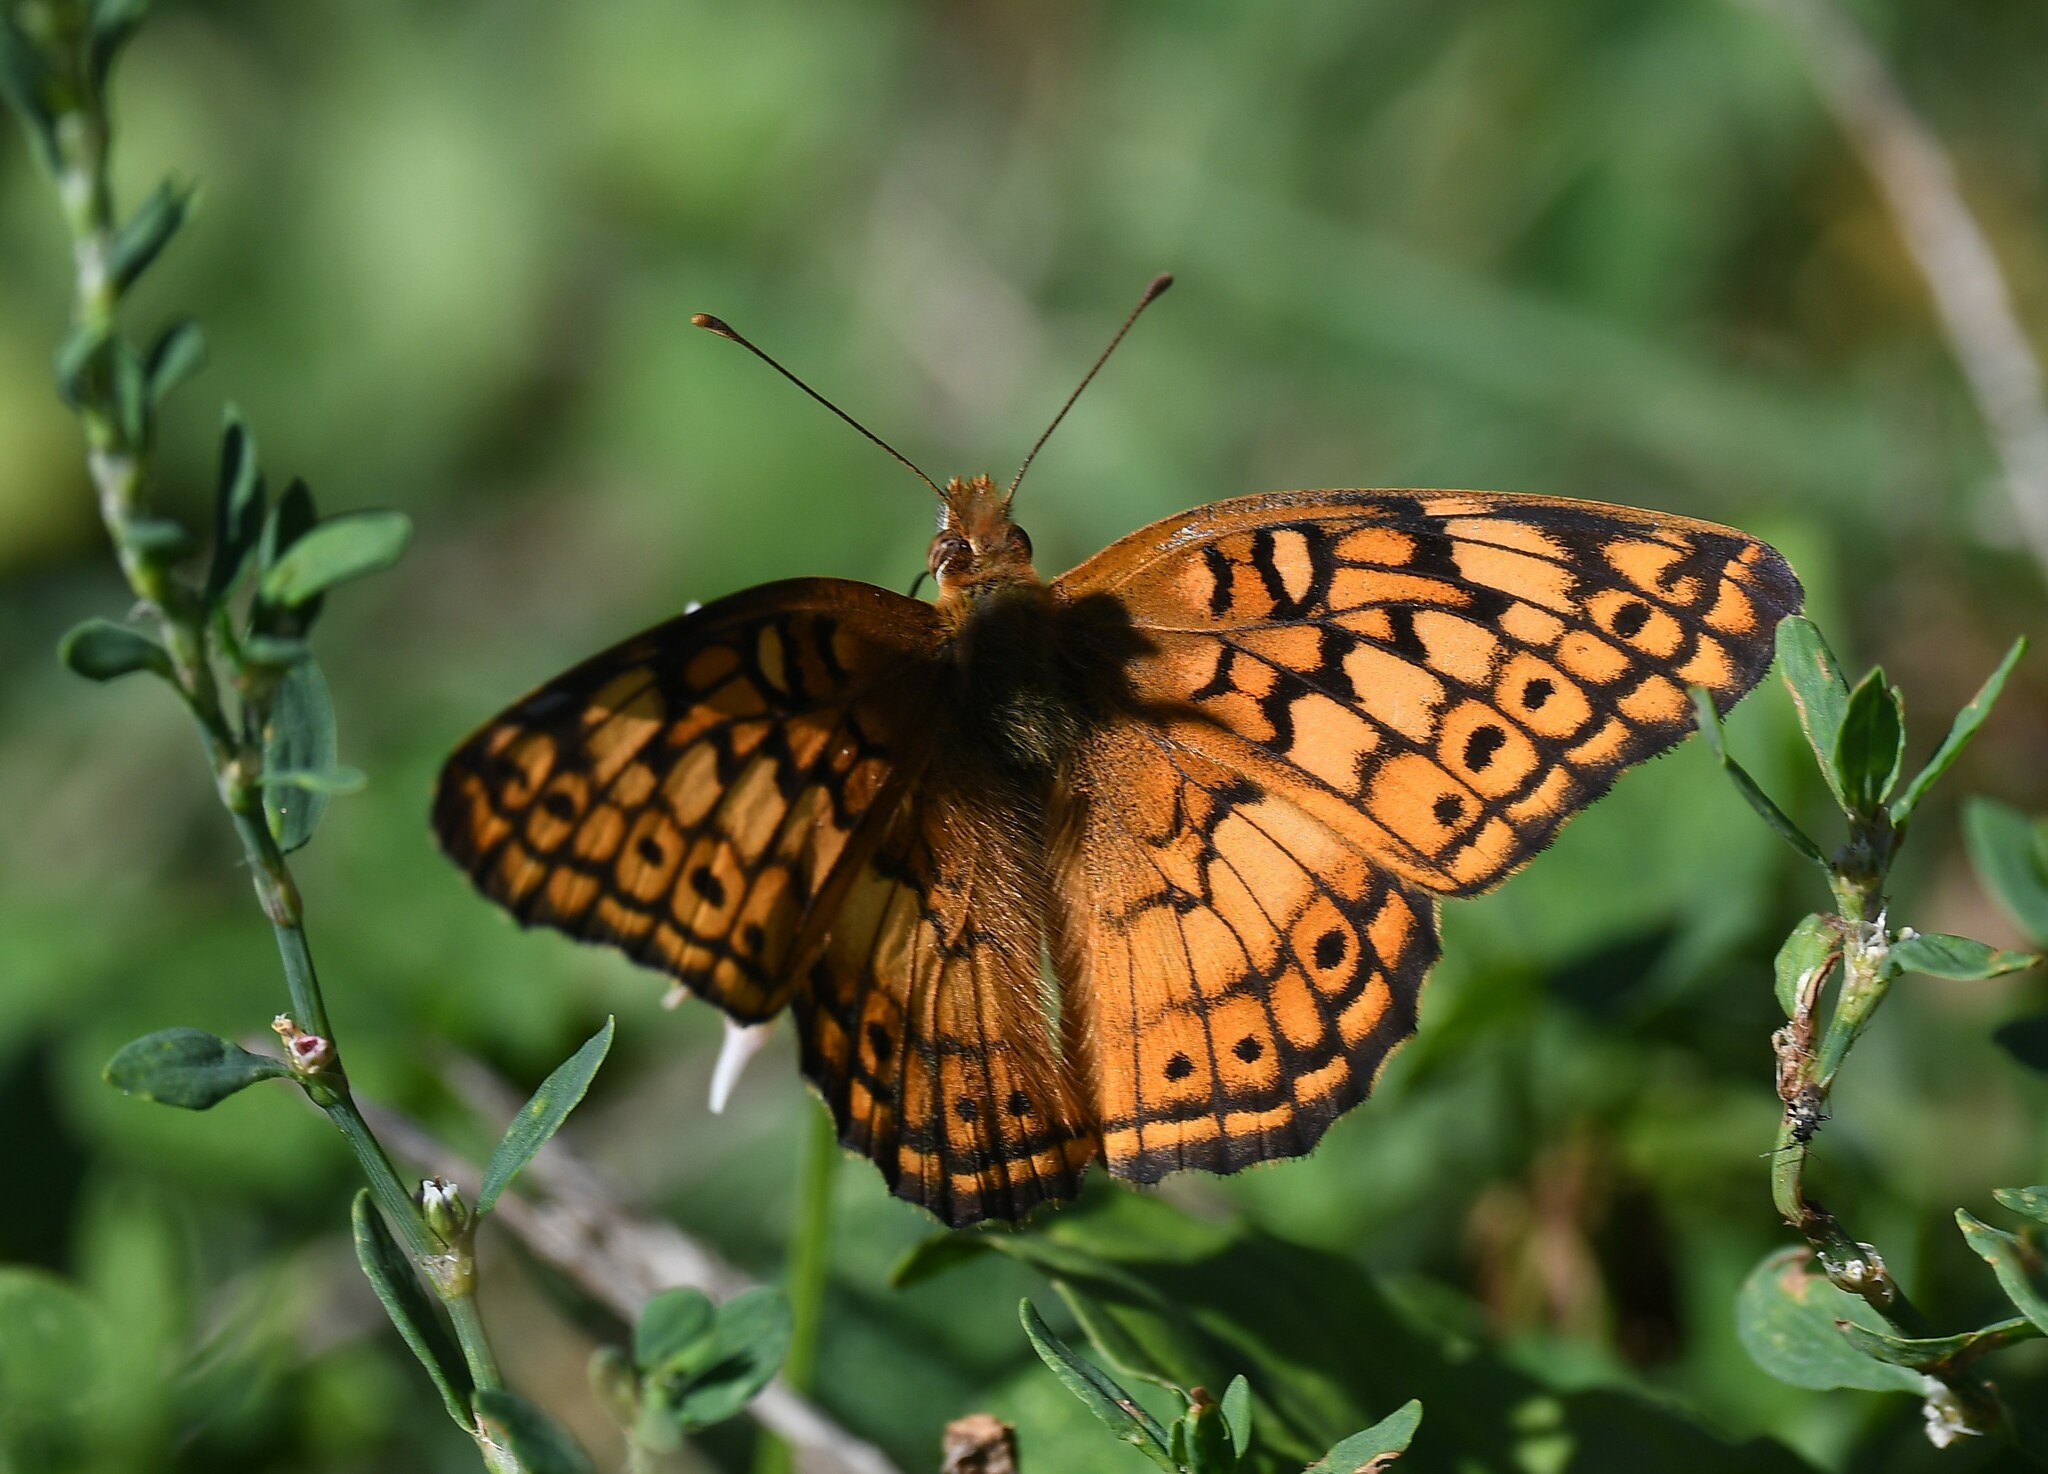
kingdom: Animalia
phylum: Arthropoda
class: Insecta
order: Lepidoptera
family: Nymphalidae
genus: Euptoieta
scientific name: Euptoieta claudia
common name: Variegated fritillary
